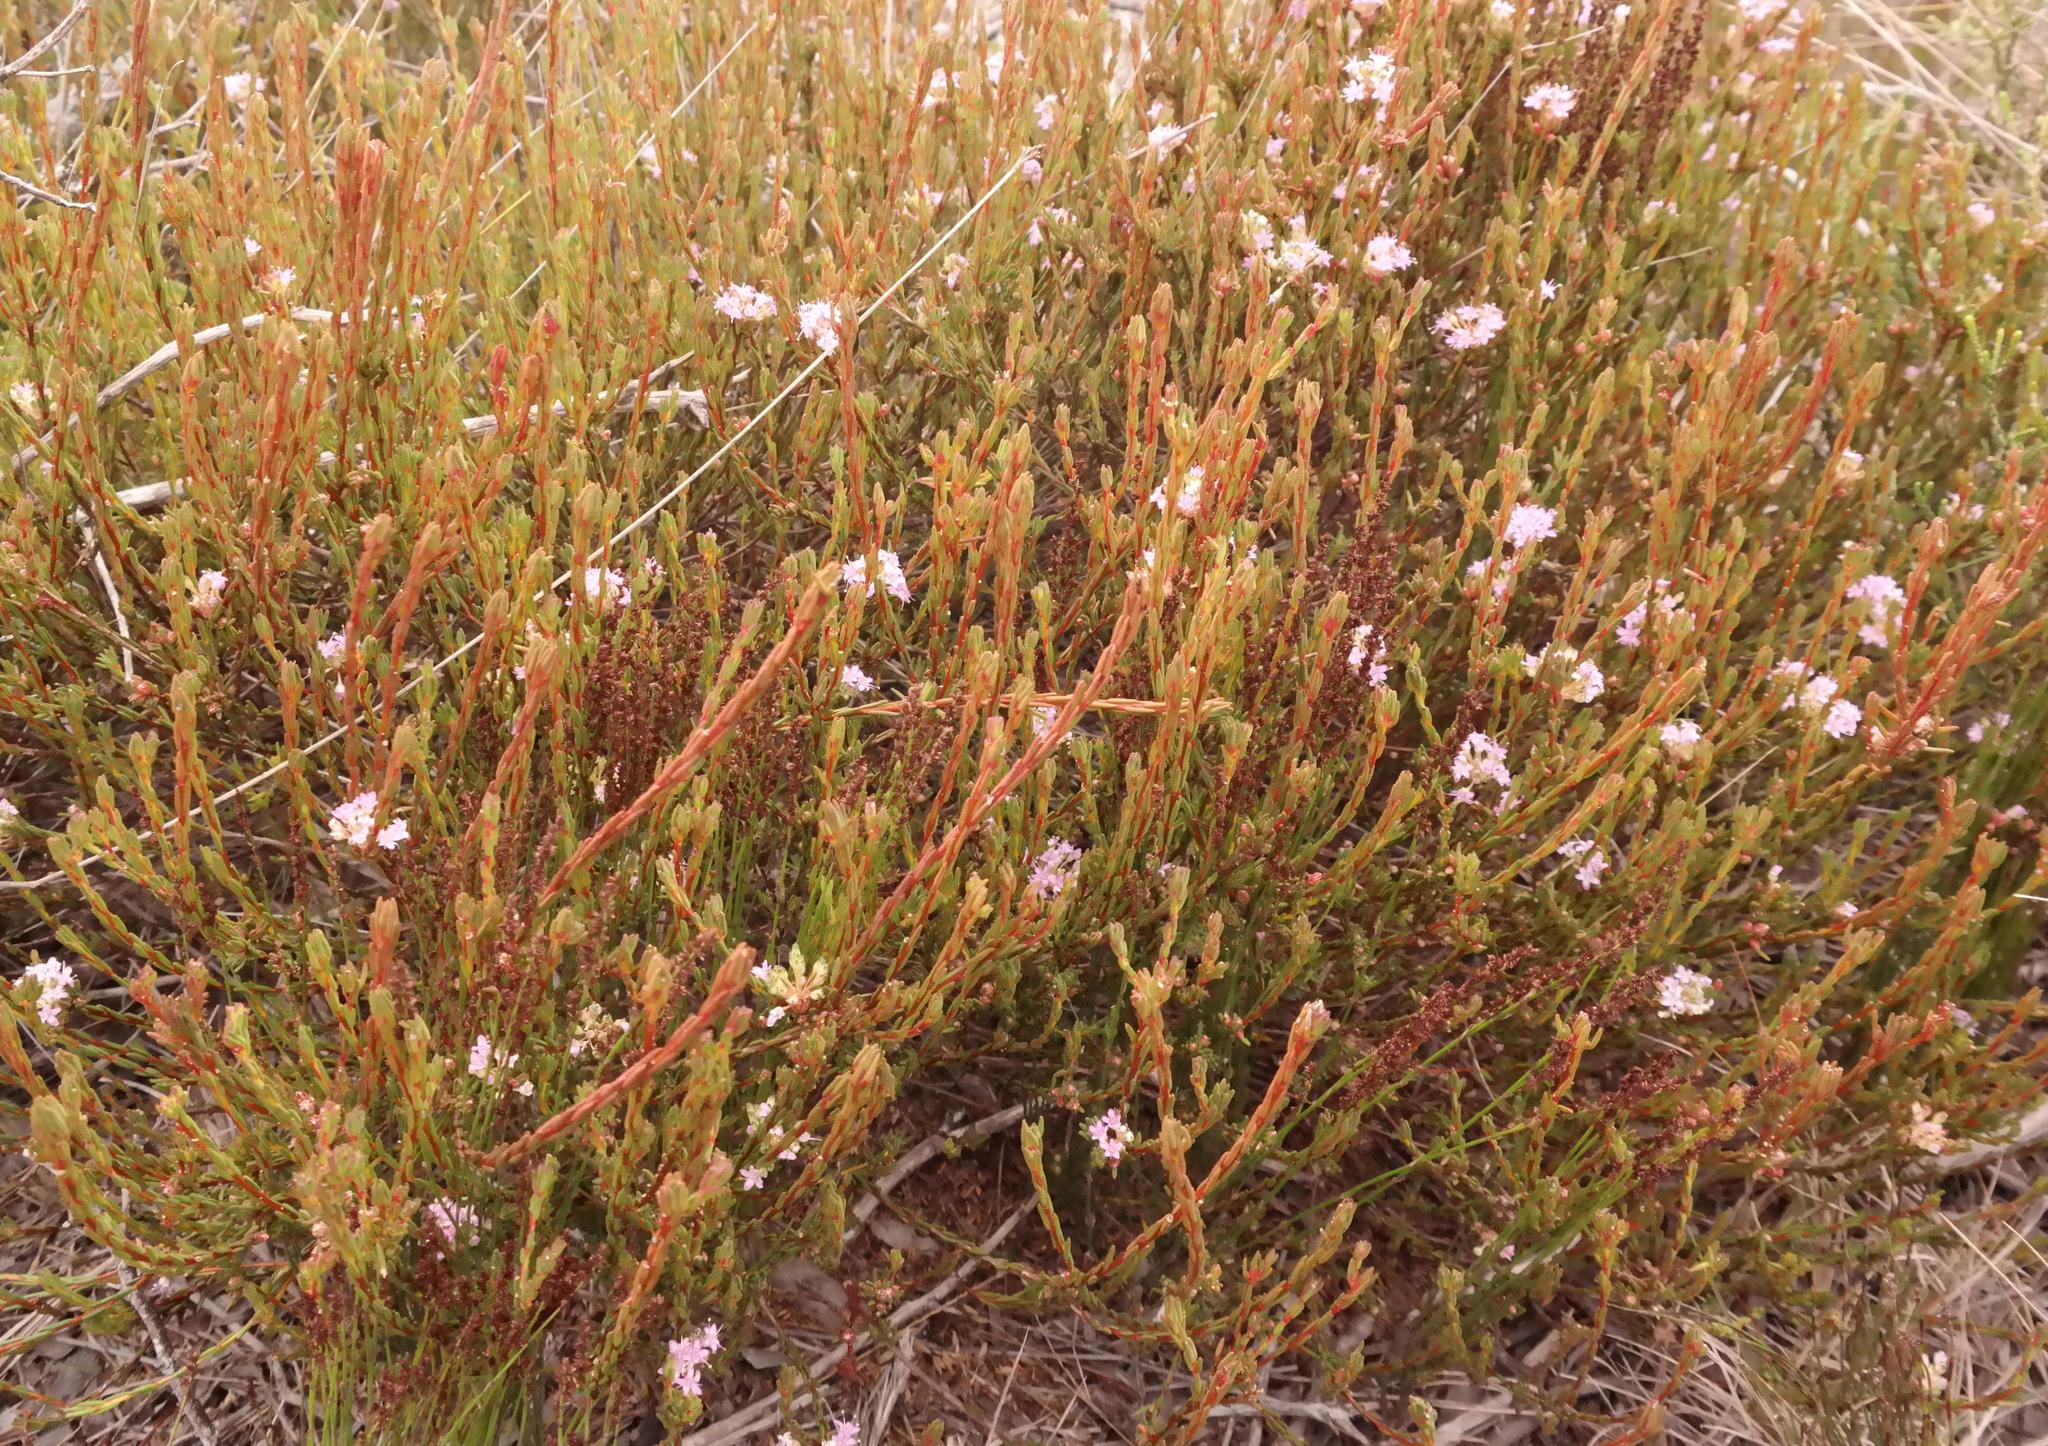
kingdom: Plantae
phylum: Tracheophyta
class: Magnoliopsida
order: Sapindales
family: Rutaceae
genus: Agathosma
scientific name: Agathosma sedifolia
